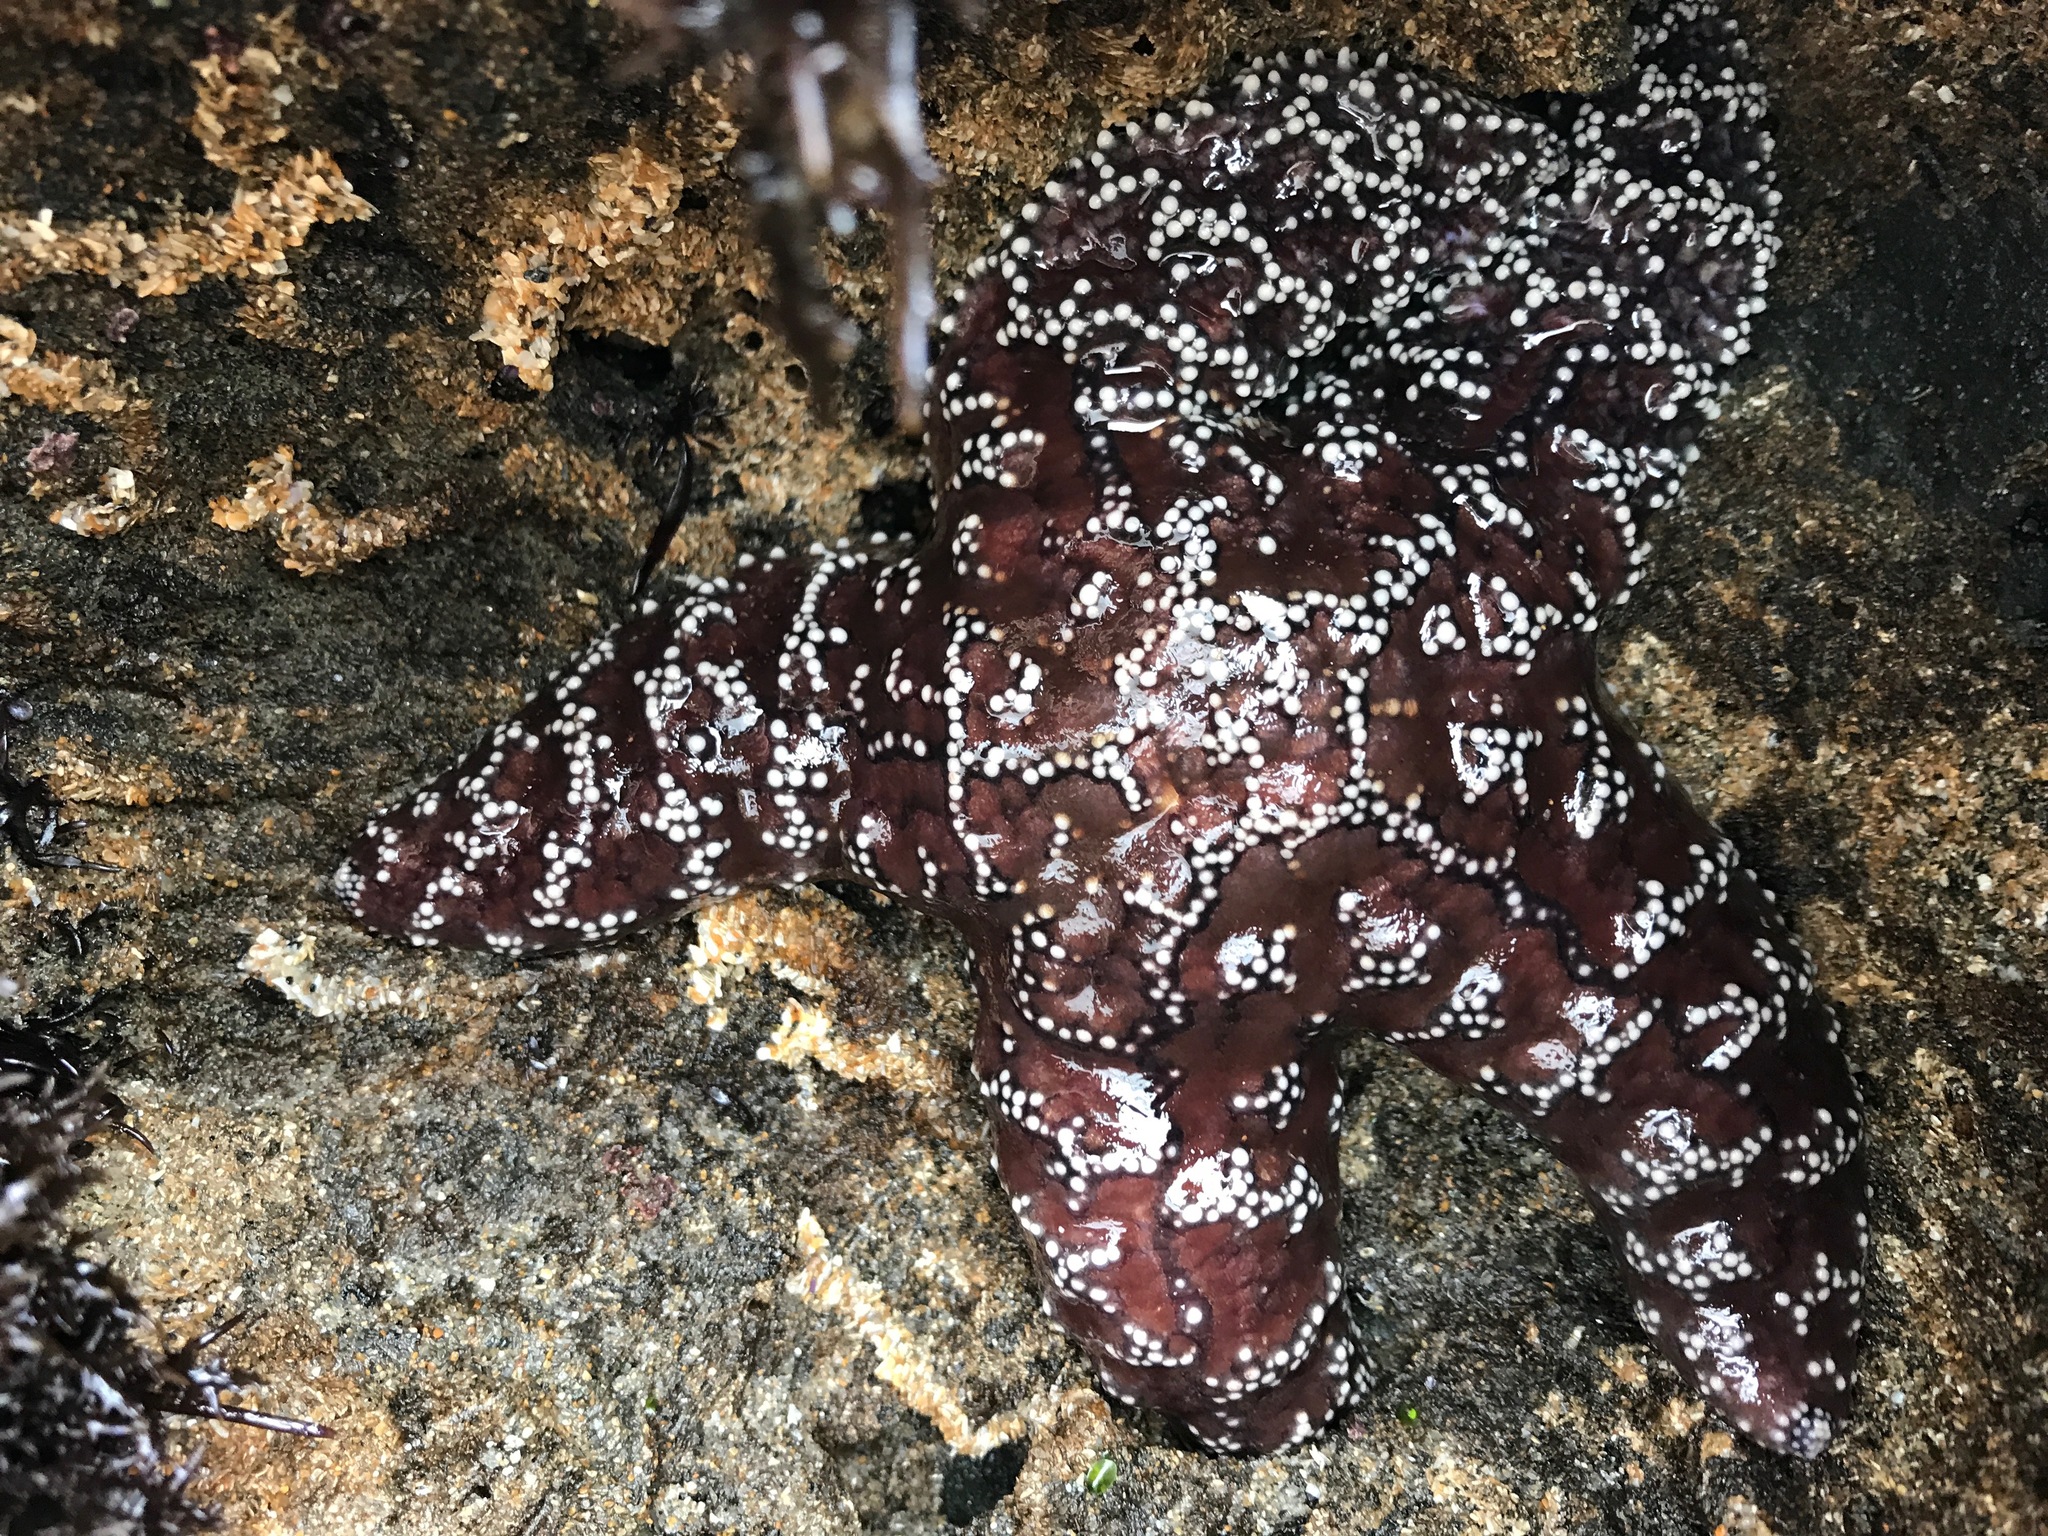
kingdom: Animalia
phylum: Echinodermata
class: Asteroidea
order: Forcipulatida
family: Asteriidae
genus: Pisaster
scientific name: Pisaster ochraceus
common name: Ochre stars
